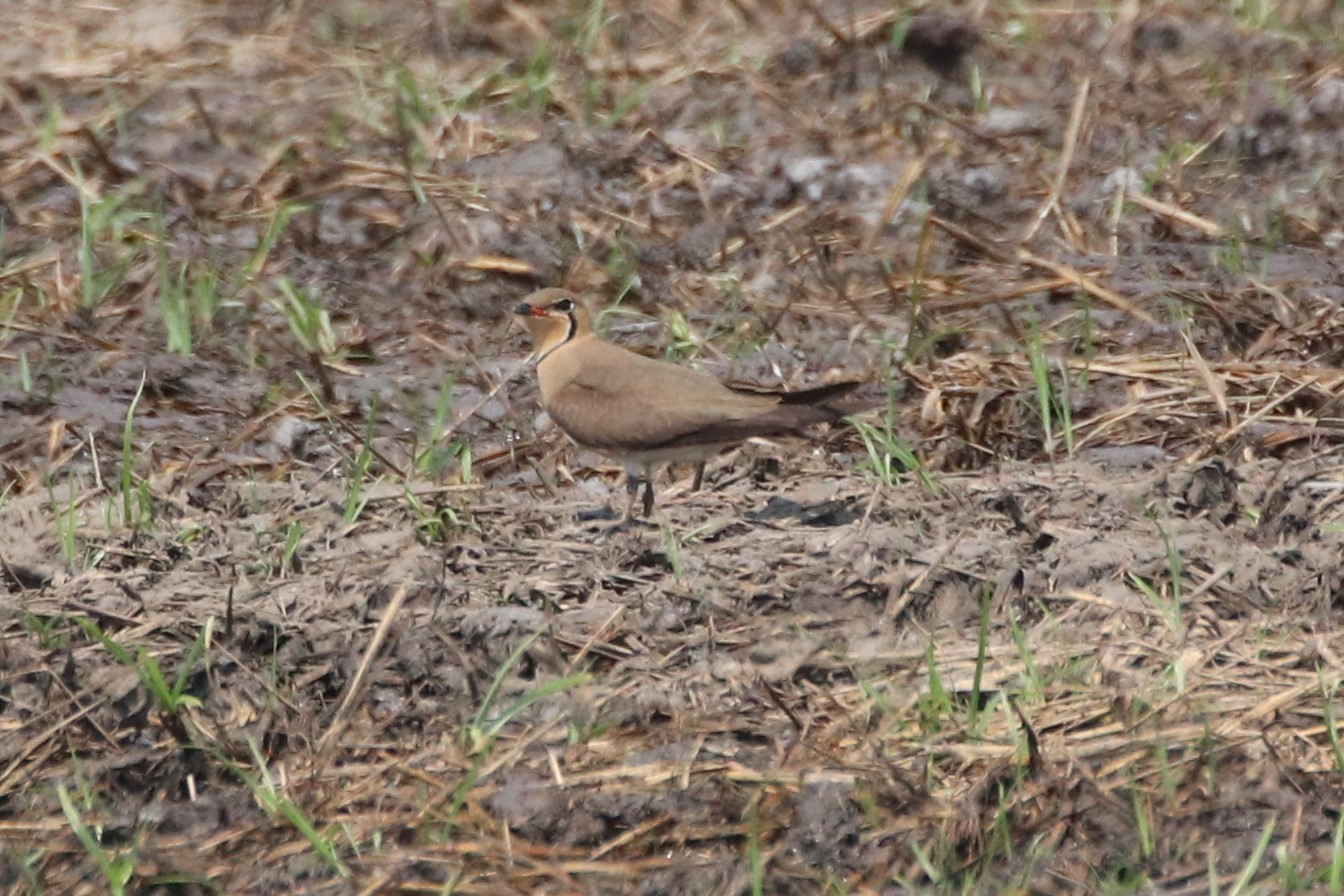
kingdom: Animalia
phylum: Chordata
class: Aves
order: Charadriiformes
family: Glareolidae
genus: Glareola
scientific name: Glareola maldivarum
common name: Oriental pratincole
